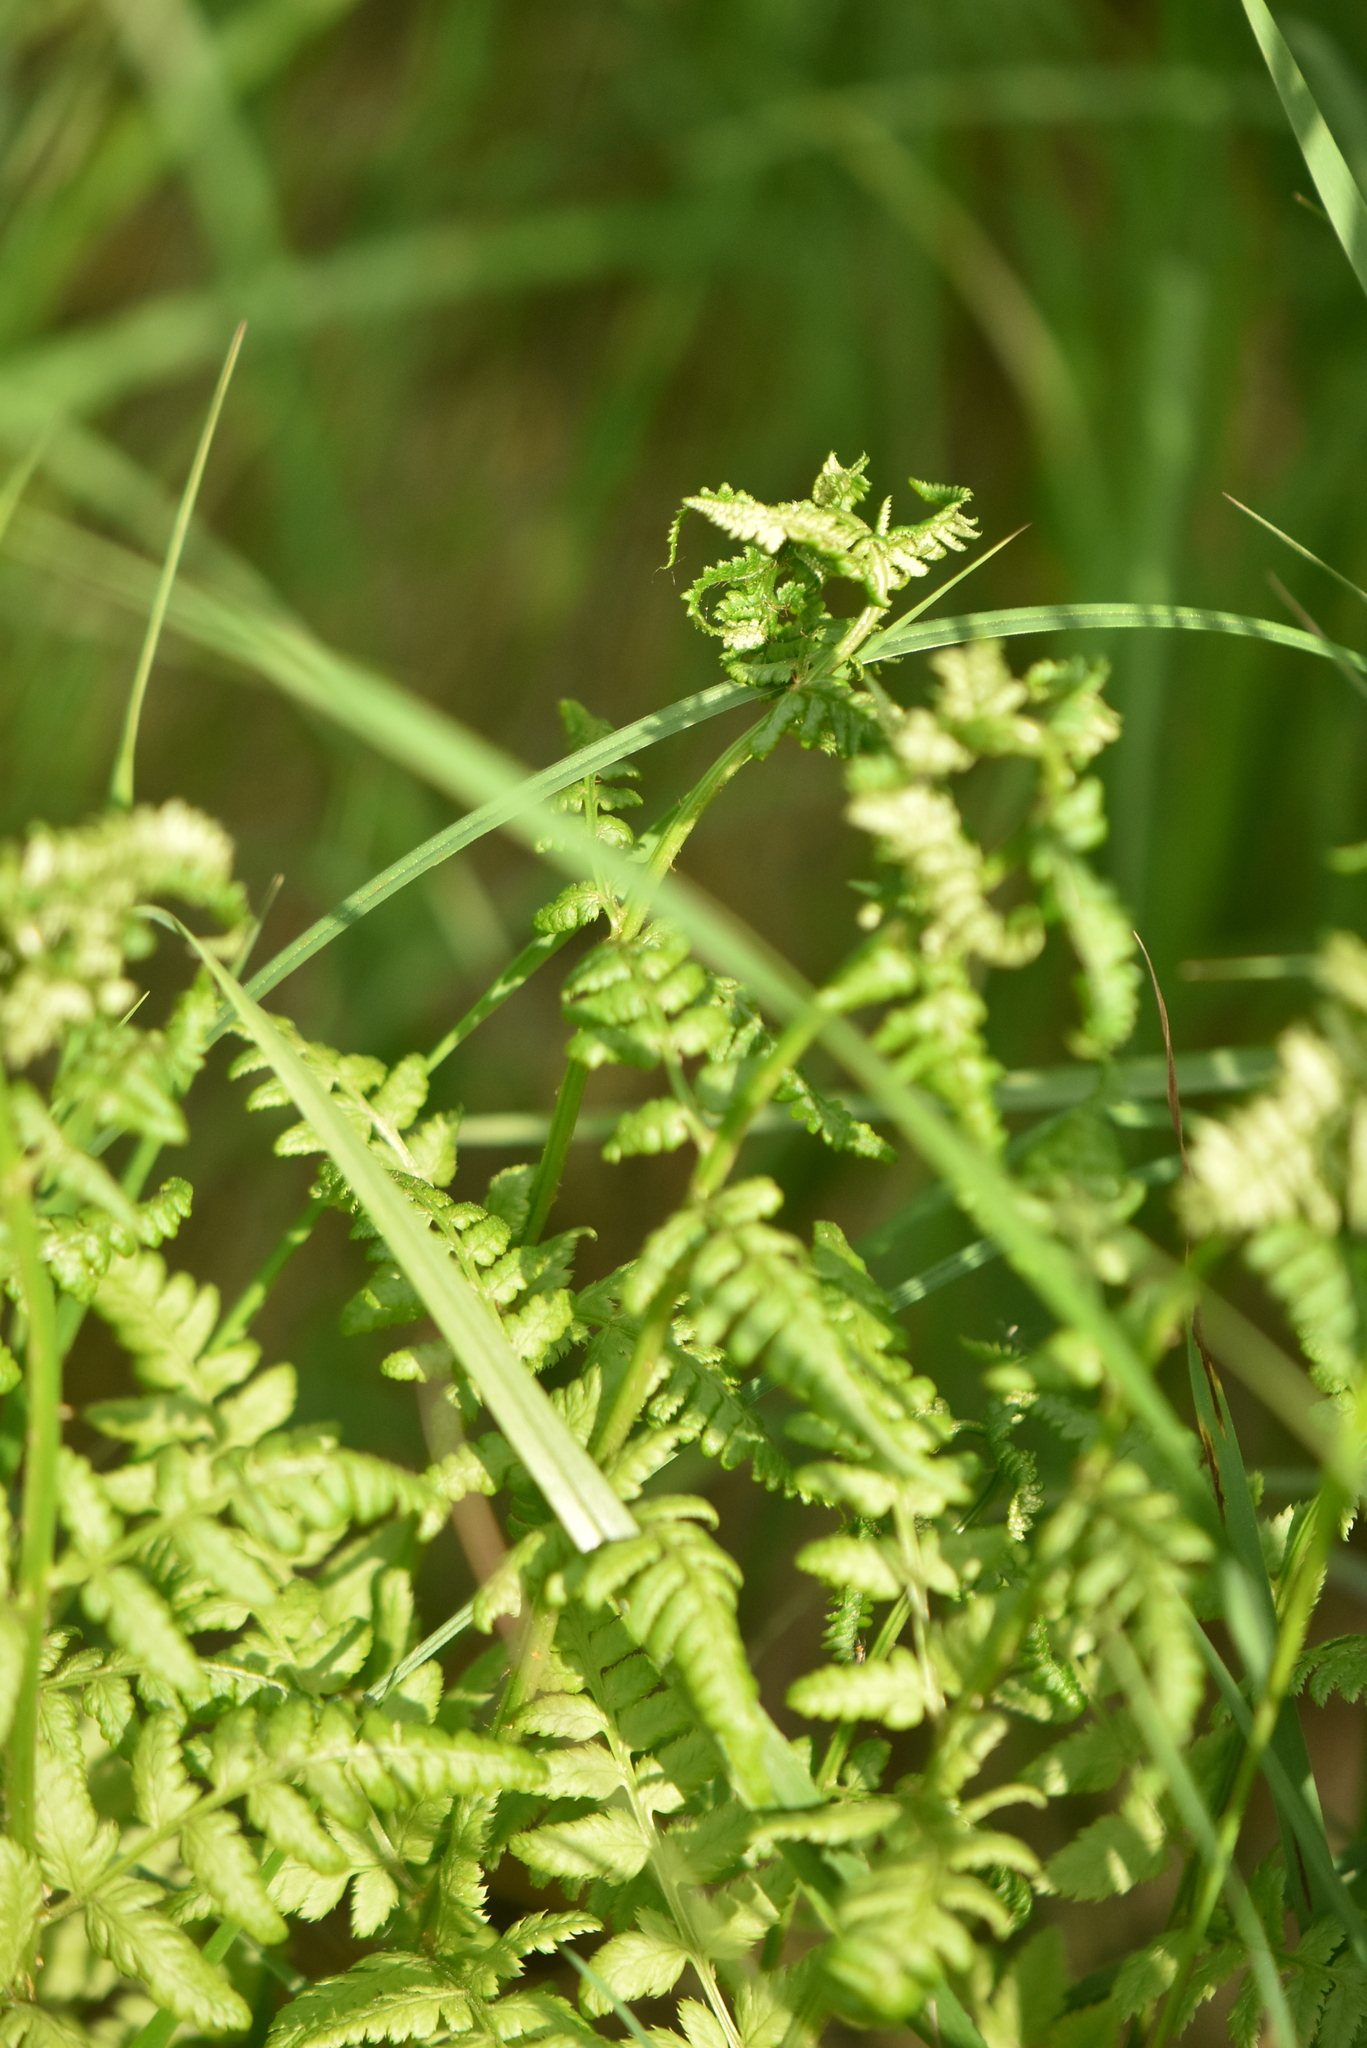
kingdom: Plantae
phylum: Tracheophyta
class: Polypodiopsida
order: Polypodiales
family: Dryopteridaceae
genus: Dryopteris
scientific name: Dryopteris carthusiana
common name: Narrow buckler-fern
